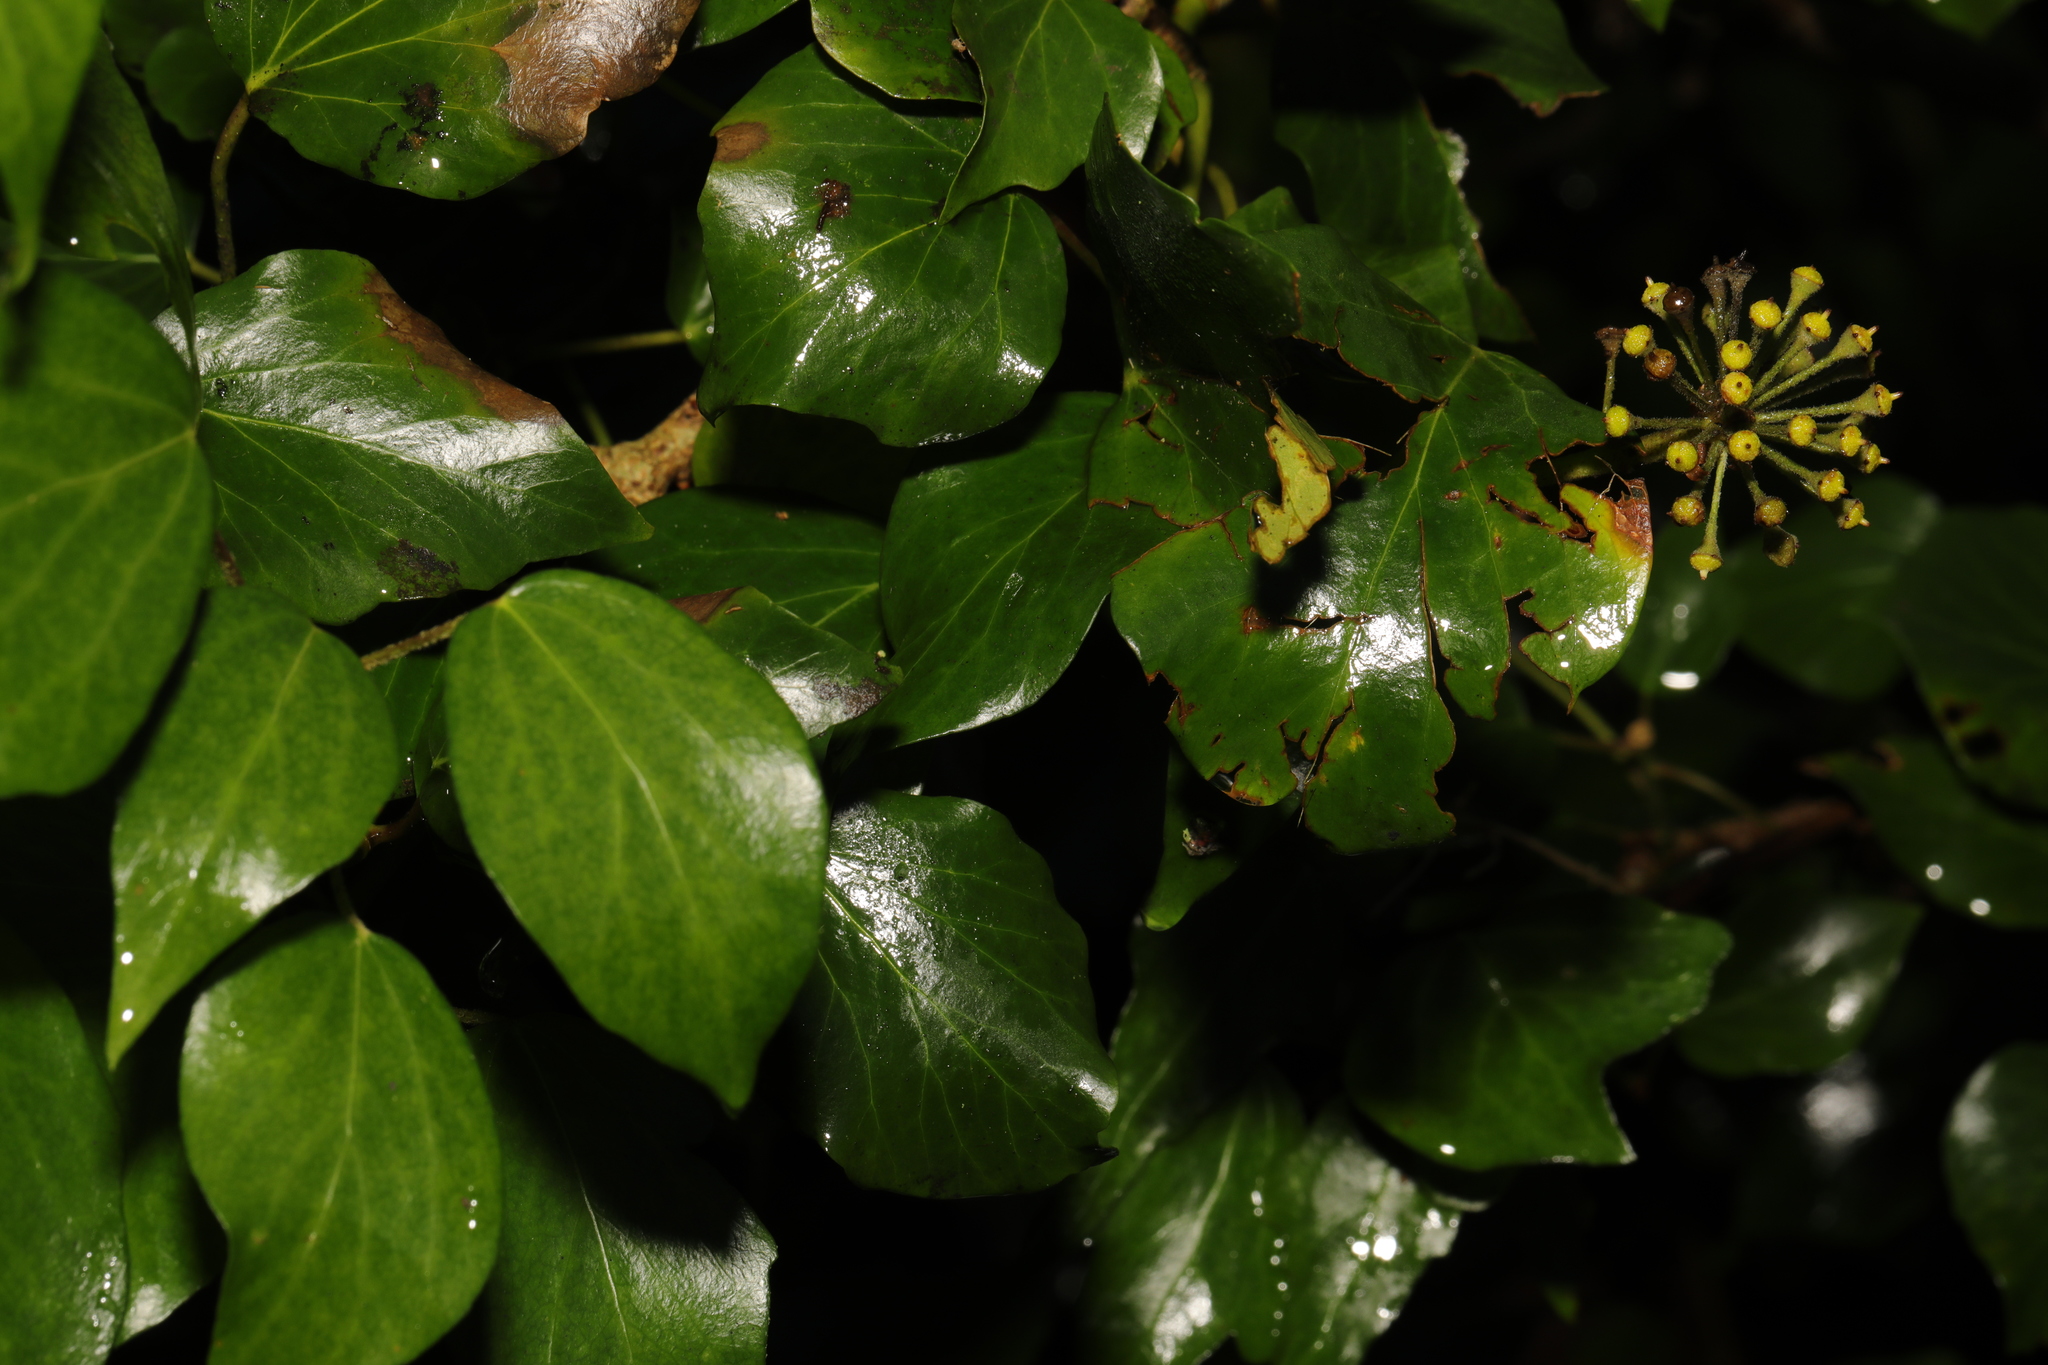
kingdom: Plantae
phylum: Tracheophyta
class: Magnoliopsida
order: Apiales
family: Araliaceae
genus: Hedera
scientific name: Hedera helix
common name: Ivy
